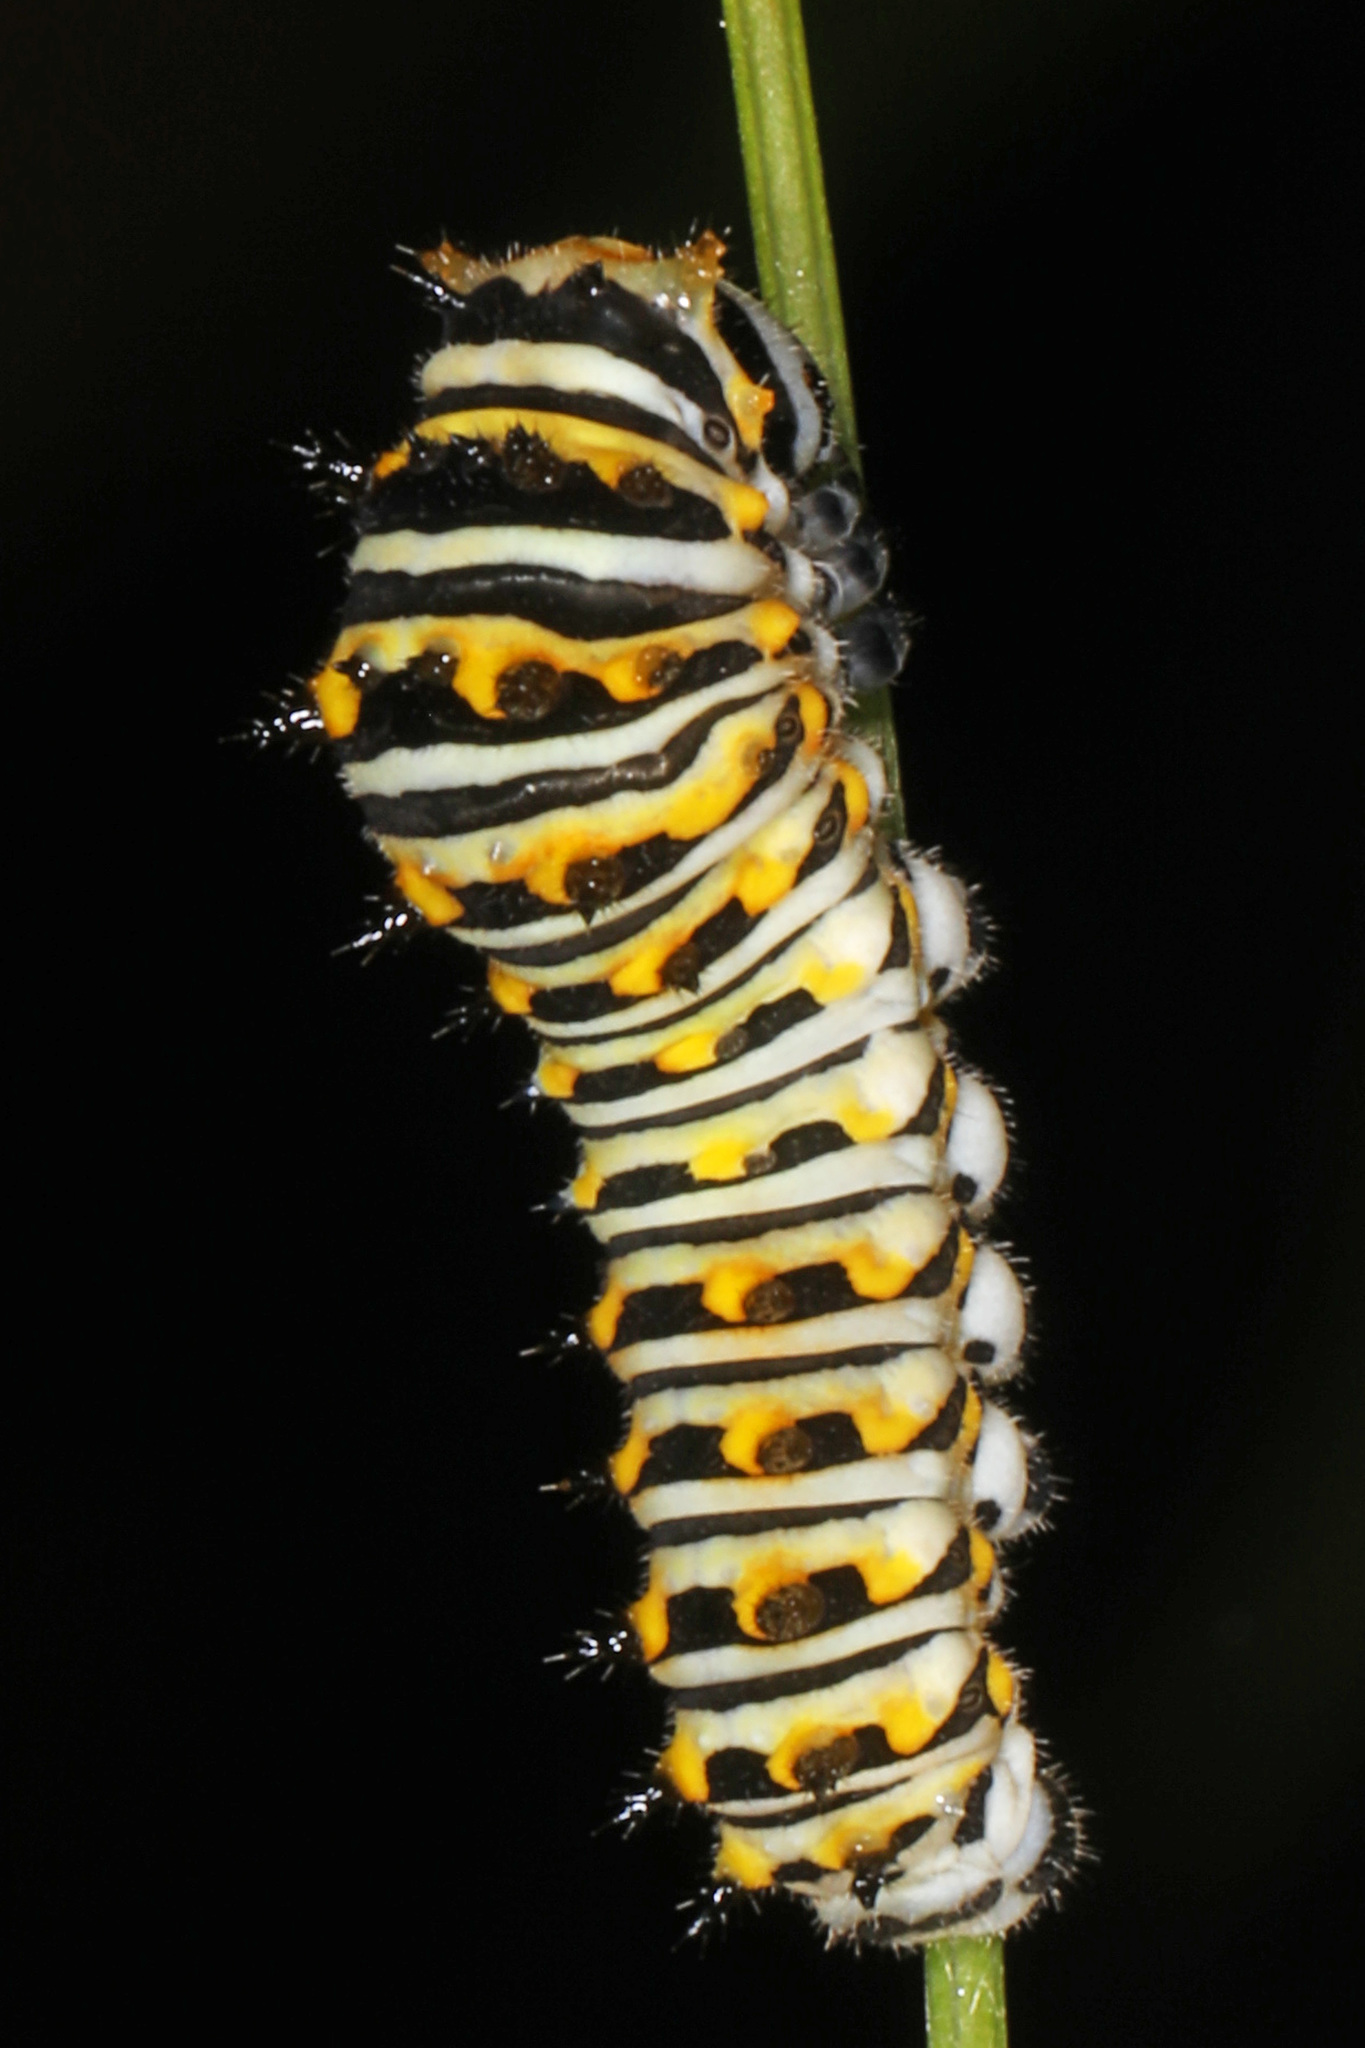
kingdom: Animalia
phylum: Arthropoda
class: Insecta
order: Lepidoptera
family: Papilionidae
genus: Papilio
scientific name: Papilio polyxenes
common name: Black swallowtail
